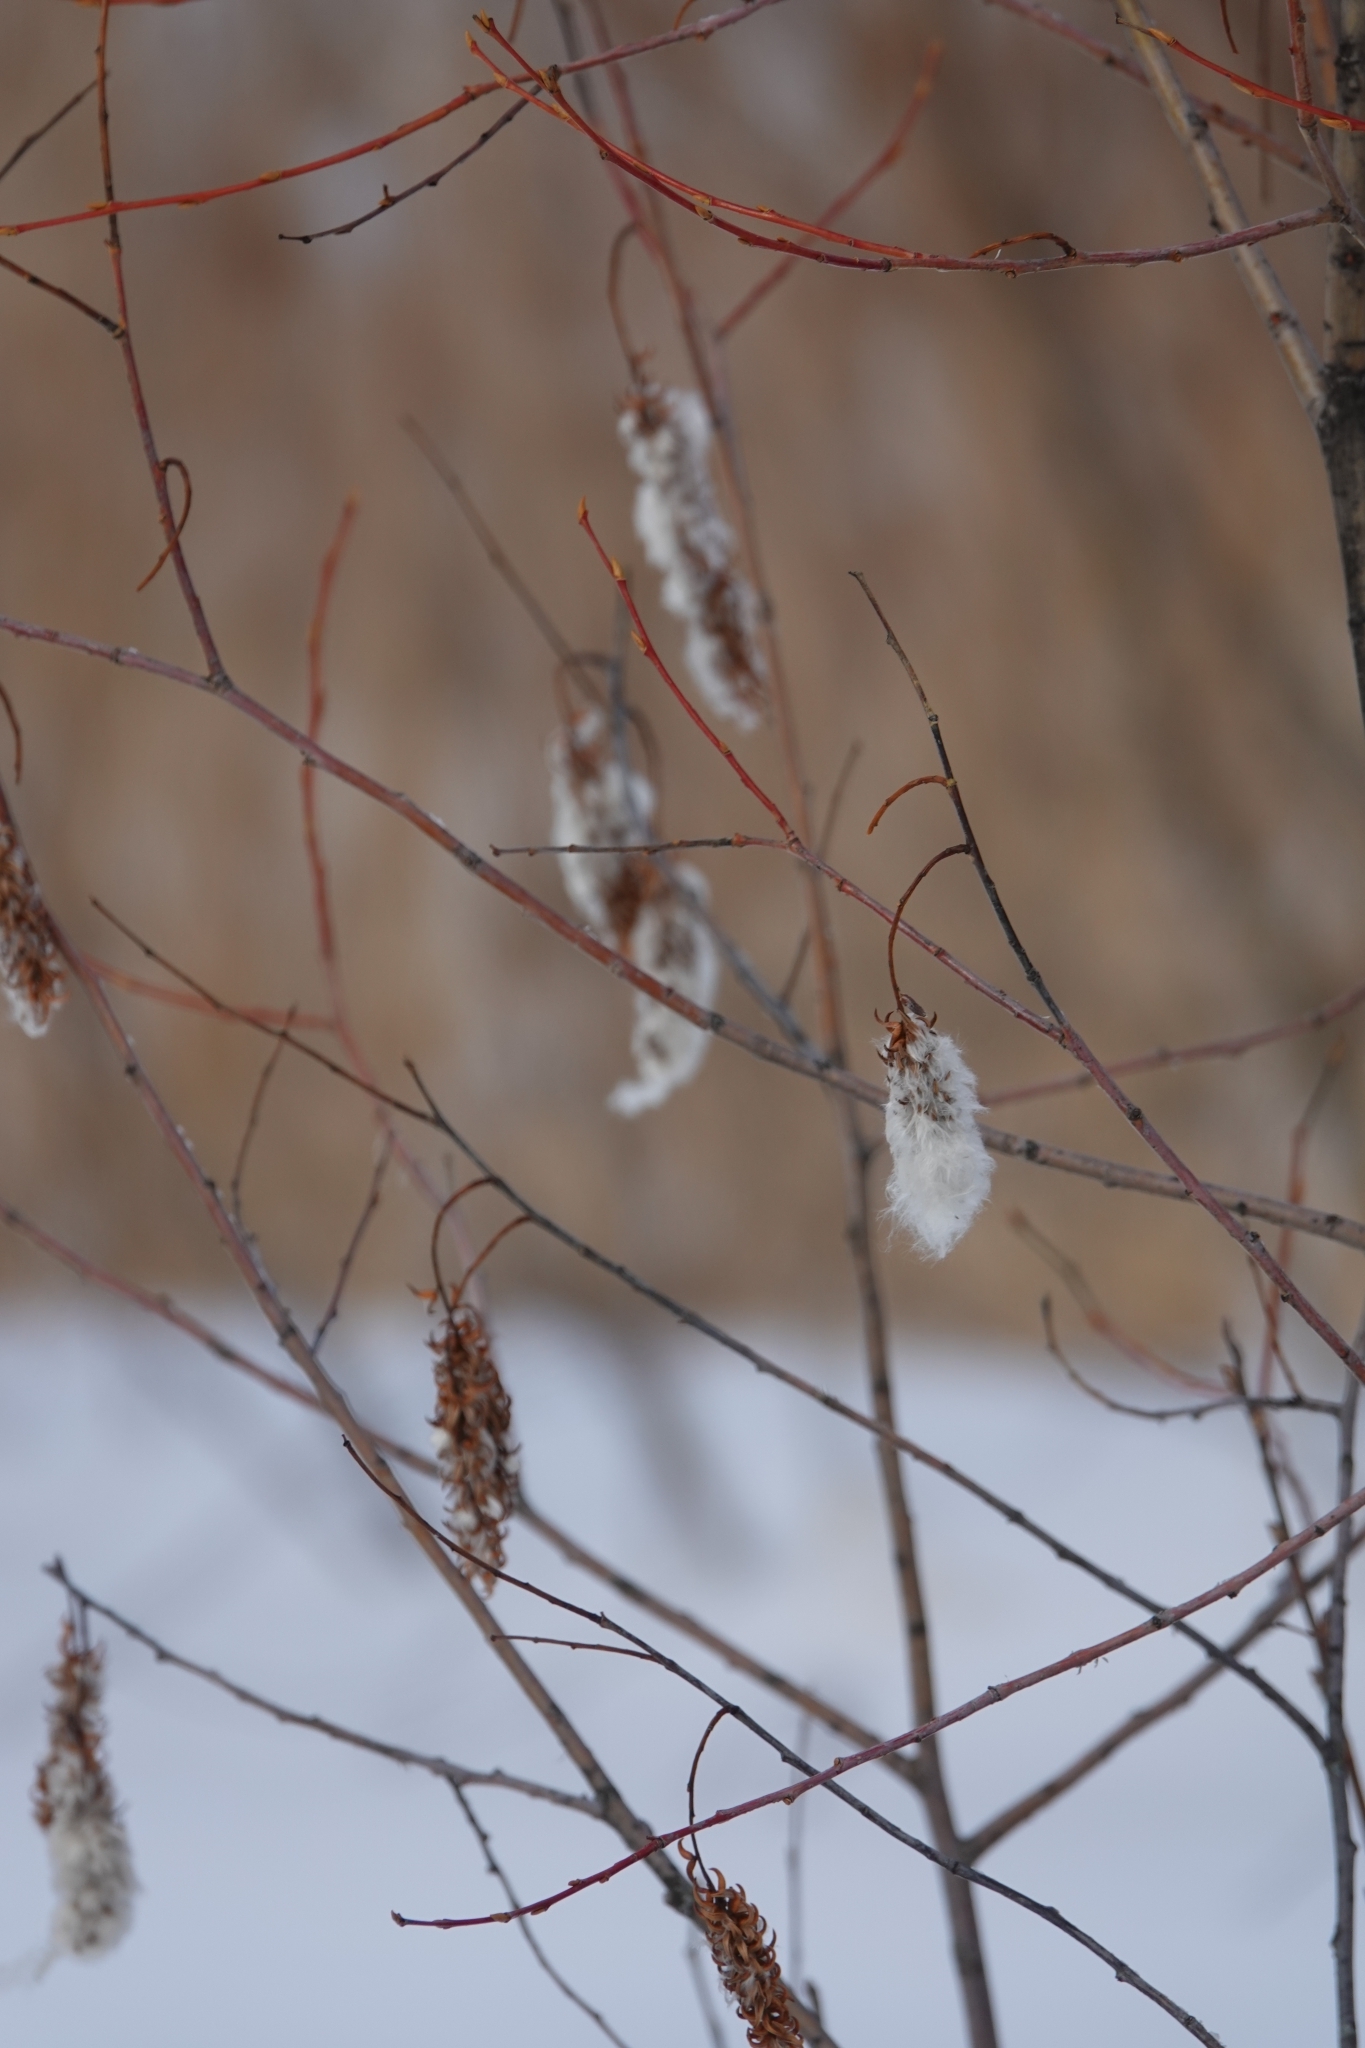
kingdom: Plantae
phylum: Tracheophyta
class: Magnoliopsida
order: Malpighiales
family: Salicaceae
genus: Salix
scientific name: Salix pentandra
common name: Bay willow
